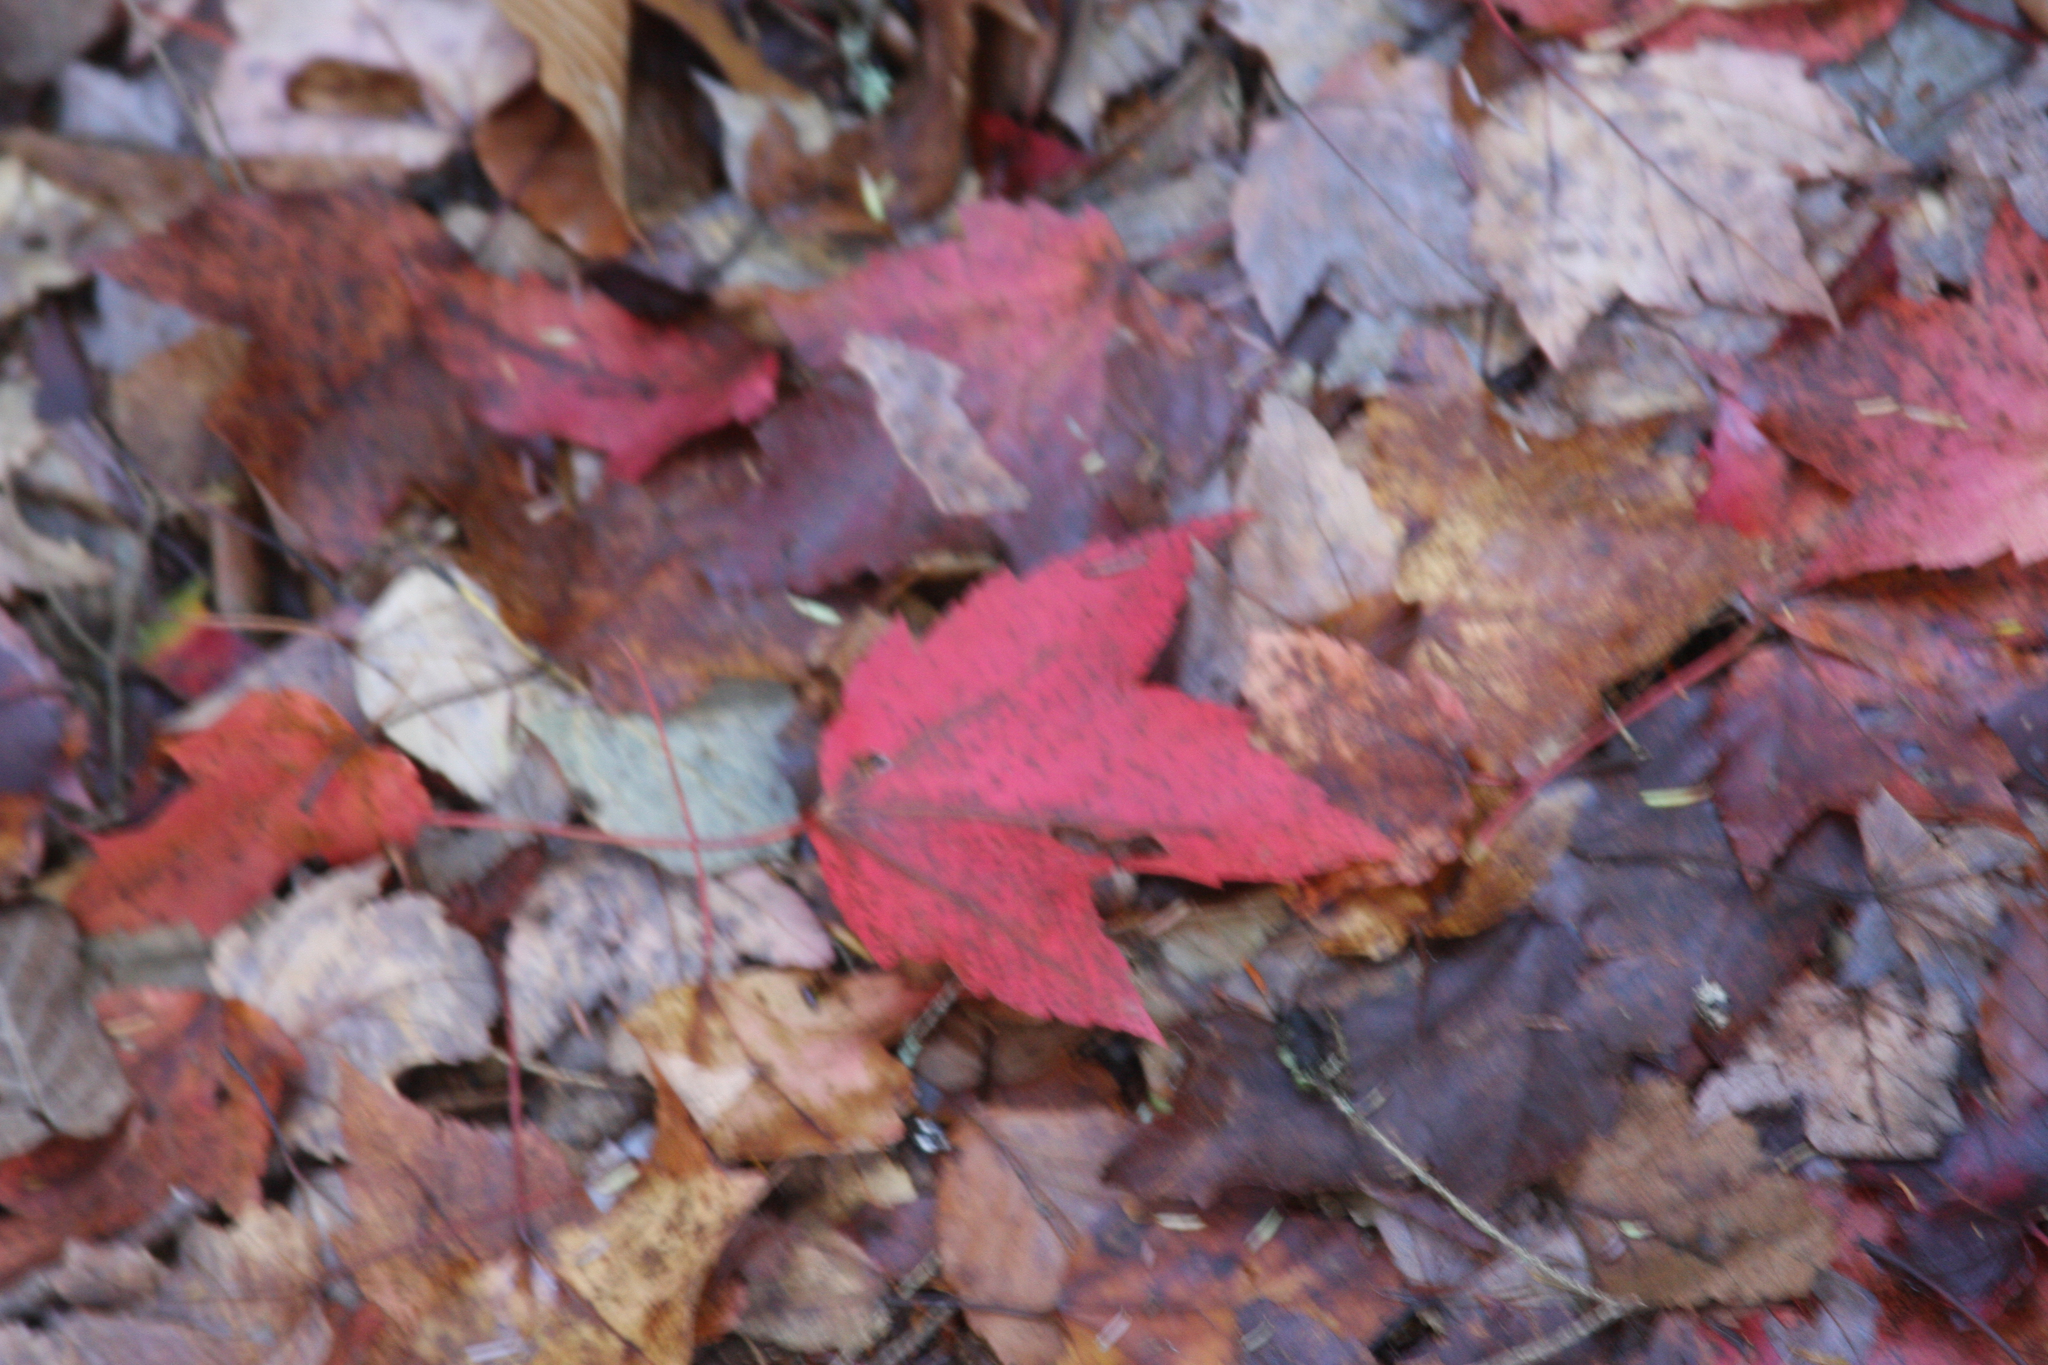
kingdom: Plantae
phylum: Tracheophyta
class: Magnoliopsida
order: Sapindales
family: Sapindaceae
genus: Acer
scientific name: Acer rubrum
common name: Red maple
